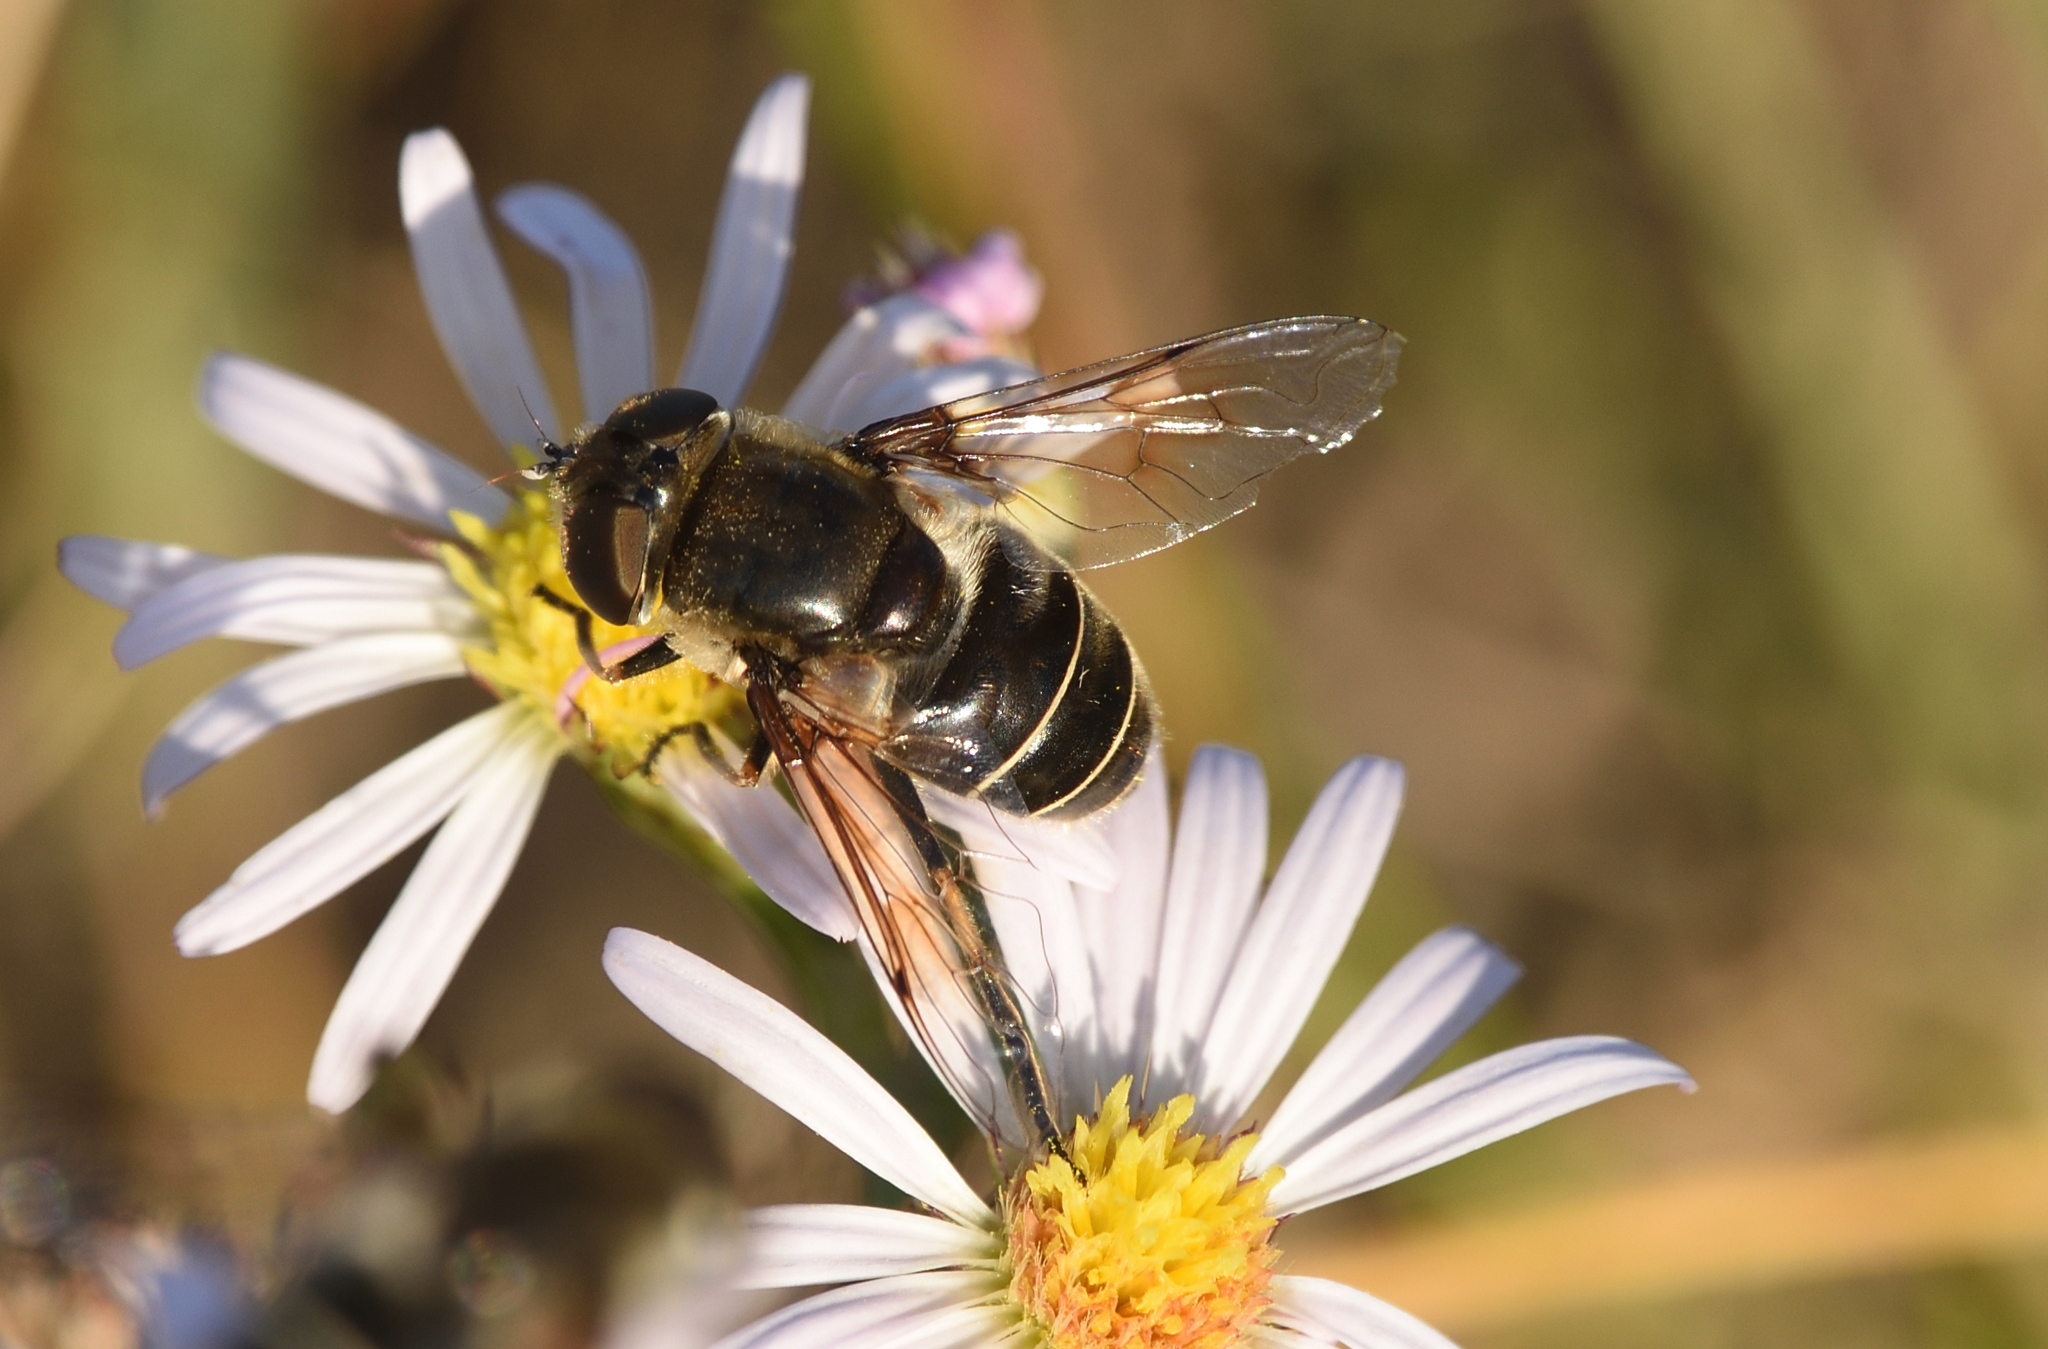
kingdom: Animalia
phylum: Arthropoda
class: Insecta
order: Diptera
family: Syrphidae
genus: Eristalis
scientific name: Eristalis dimidiata
